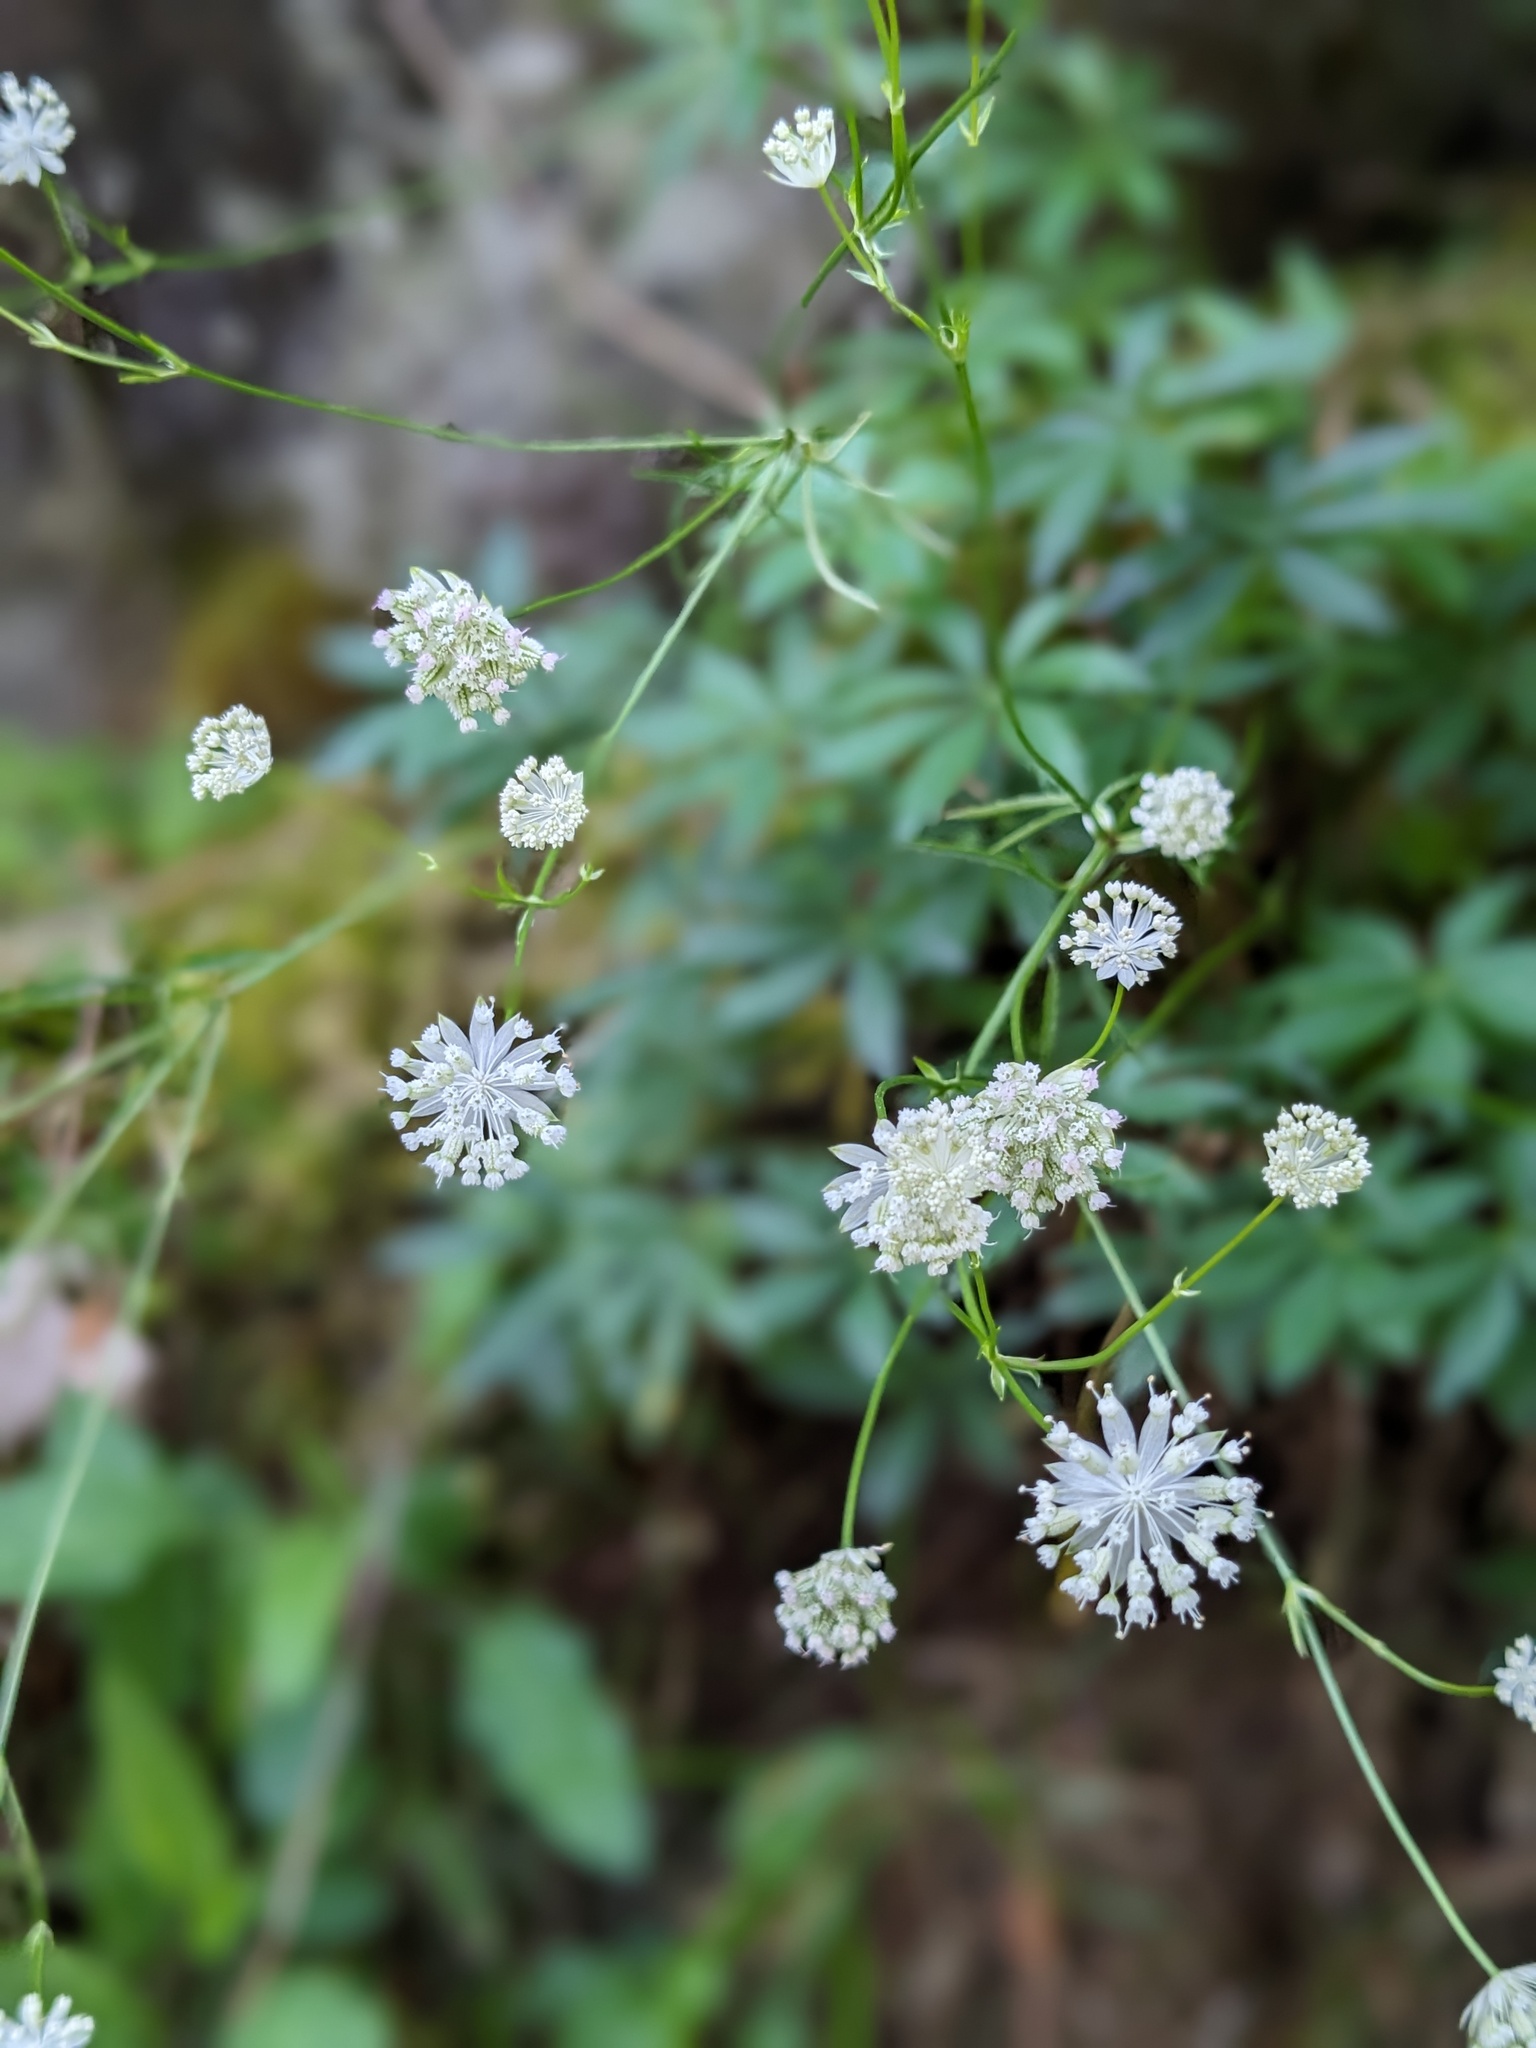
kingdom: Plantae
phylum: Tracheophyta
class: Magnoliopsida
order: Apiales
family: Apiaceae
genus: Astrantia
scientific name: Astrantia minor
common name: Lesser masterwort
